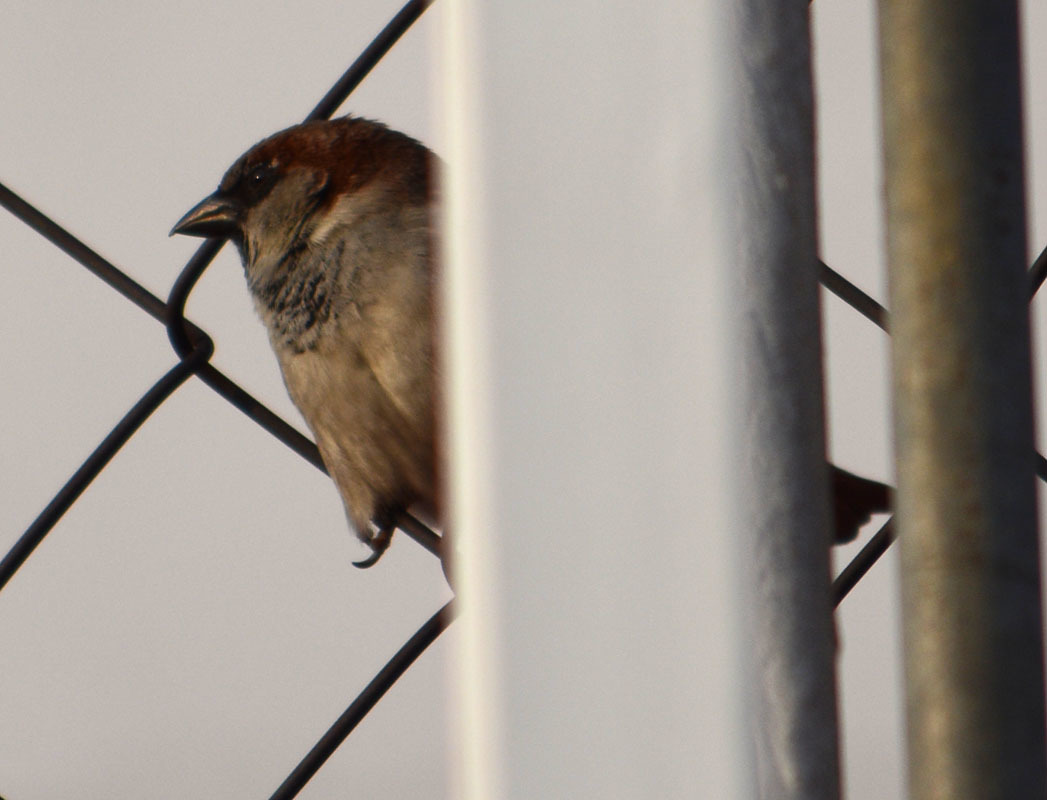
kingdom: Animalia
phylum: Chordata
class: Aves
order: Passeriformes
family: Passeridae
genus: Passer
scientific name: Passer domesticus
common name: House sparrow
